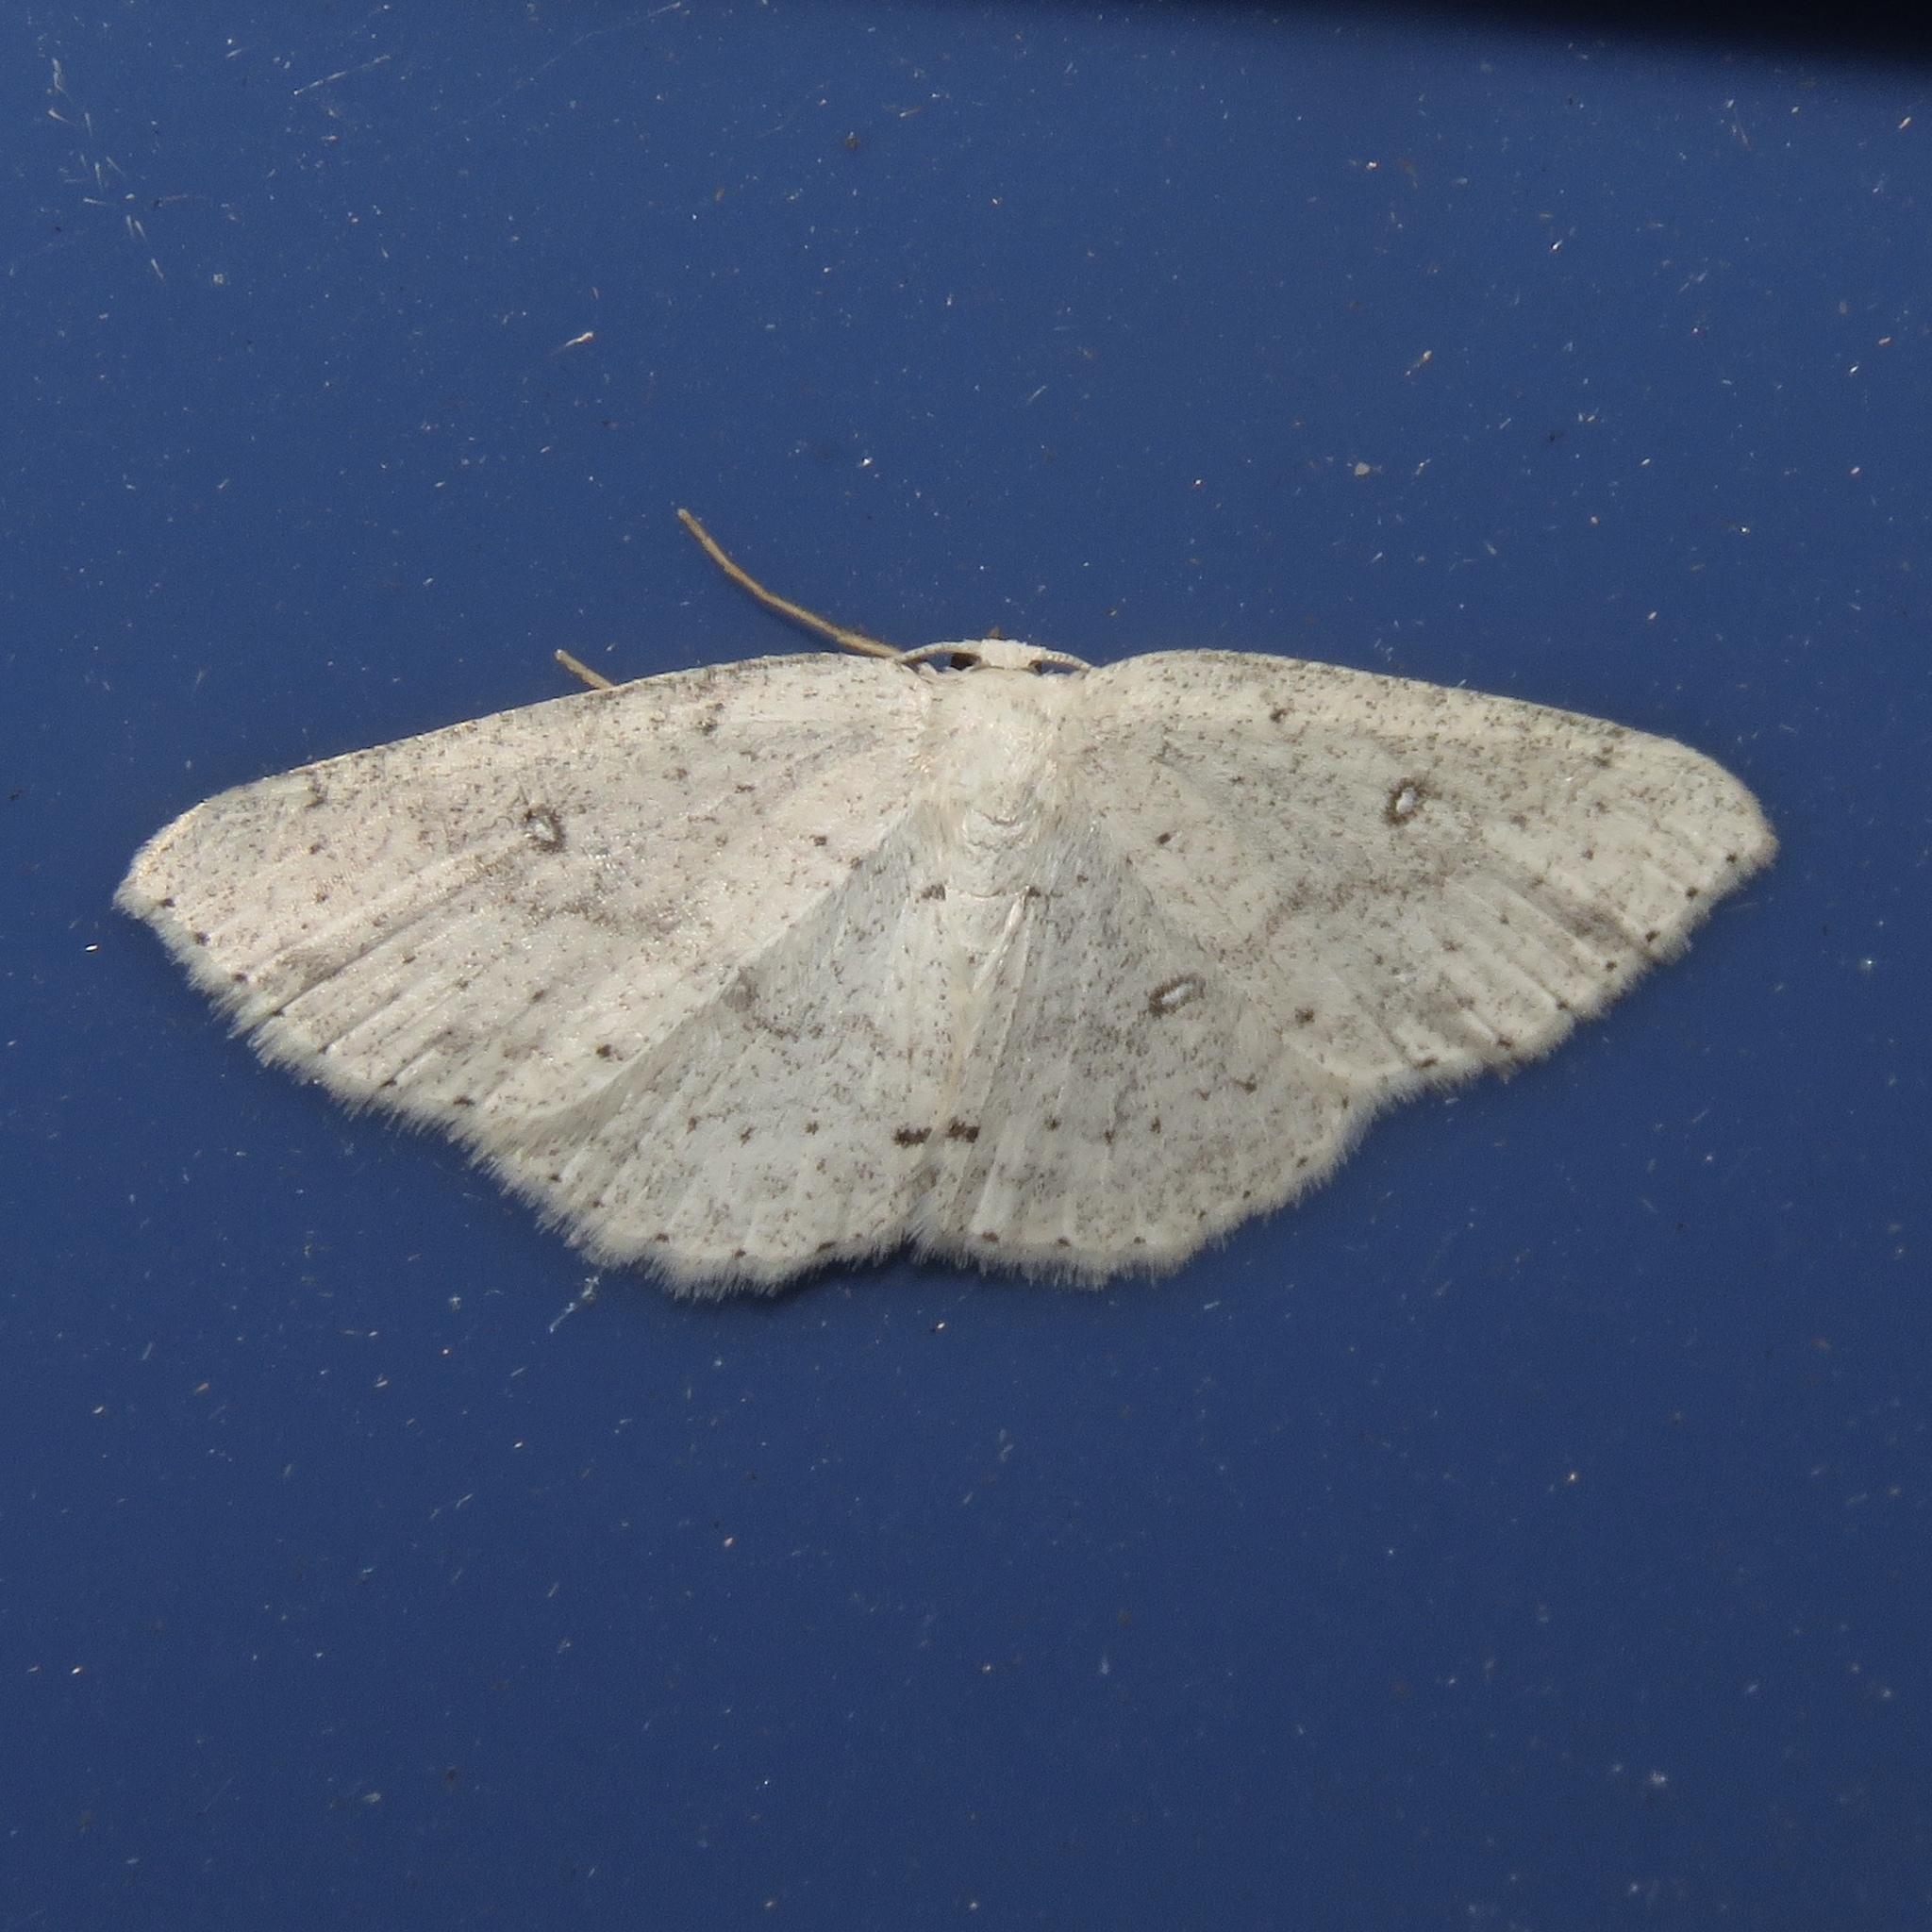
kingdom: Animalia
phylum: Arthropoda
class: Insecta
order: Lepidoptera
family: Geometridae
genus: Cyclophora
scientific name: Cyclophora pendulinaria
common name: Sweet fern geometer
